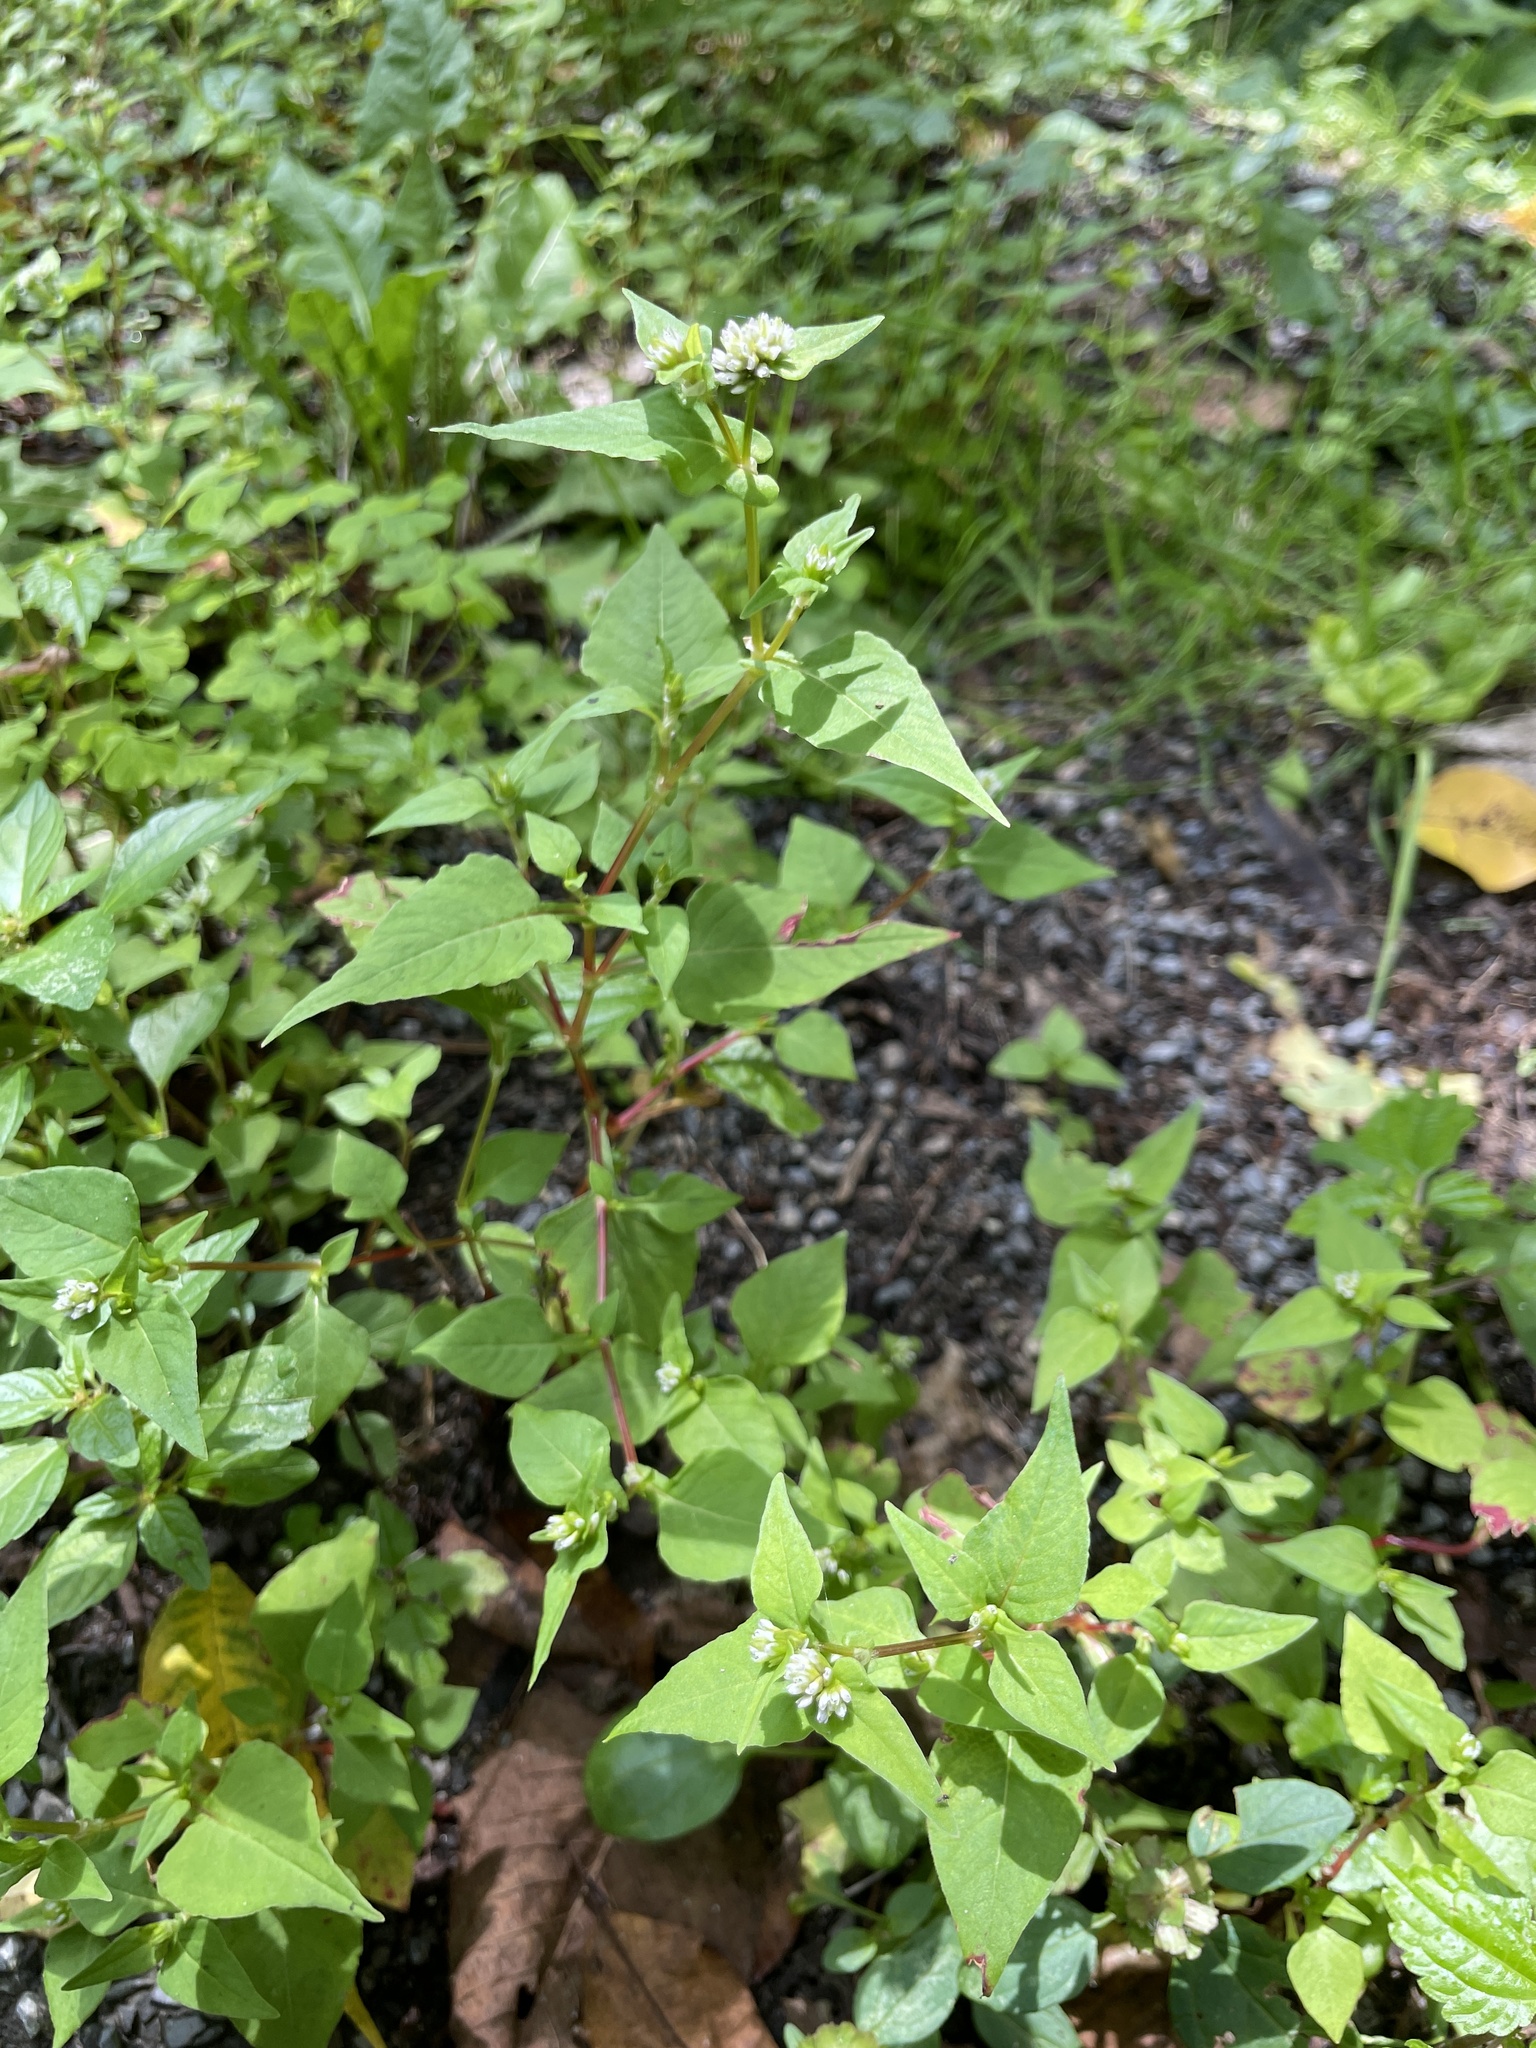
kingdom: Plantae
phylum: Tracheophyta
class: Magnoliopsida
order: Caryophyllales
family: Polygonaceae
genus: Persicaria
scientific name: Persicaria nepalensis
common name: Nepal persicaria
